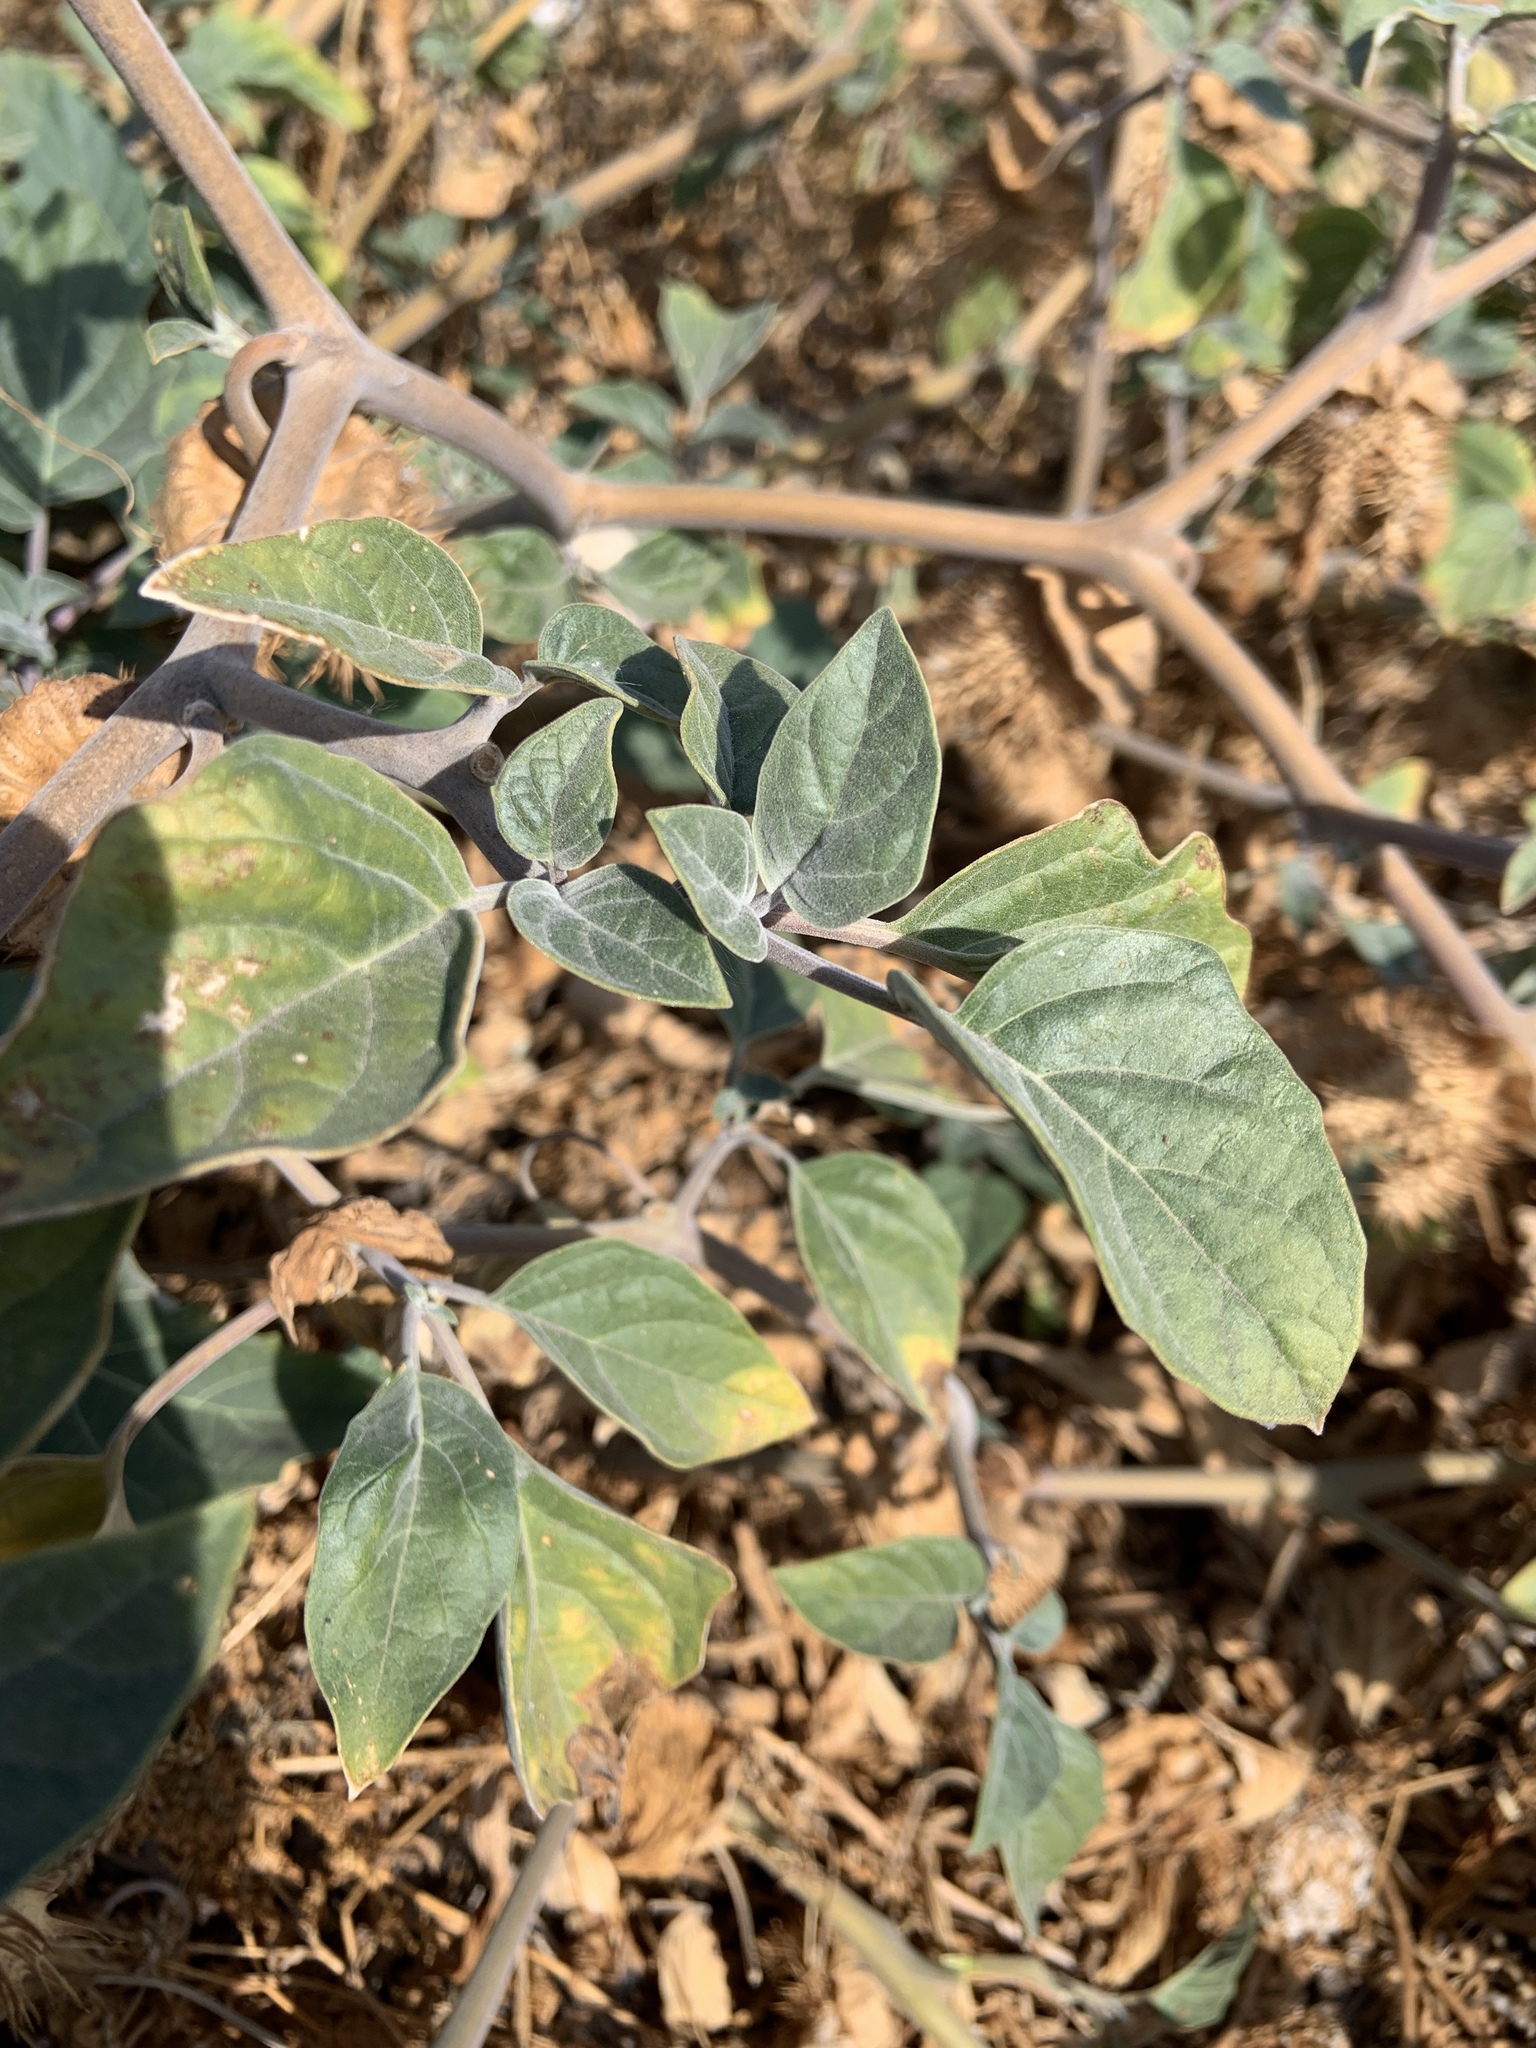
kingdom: Plantae
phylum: Tracheophyta
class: Magnoliopsida
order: Solanales
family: Solanaceae
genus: Datura
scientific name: Datura wrightii
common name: Sacred thorn-apple
